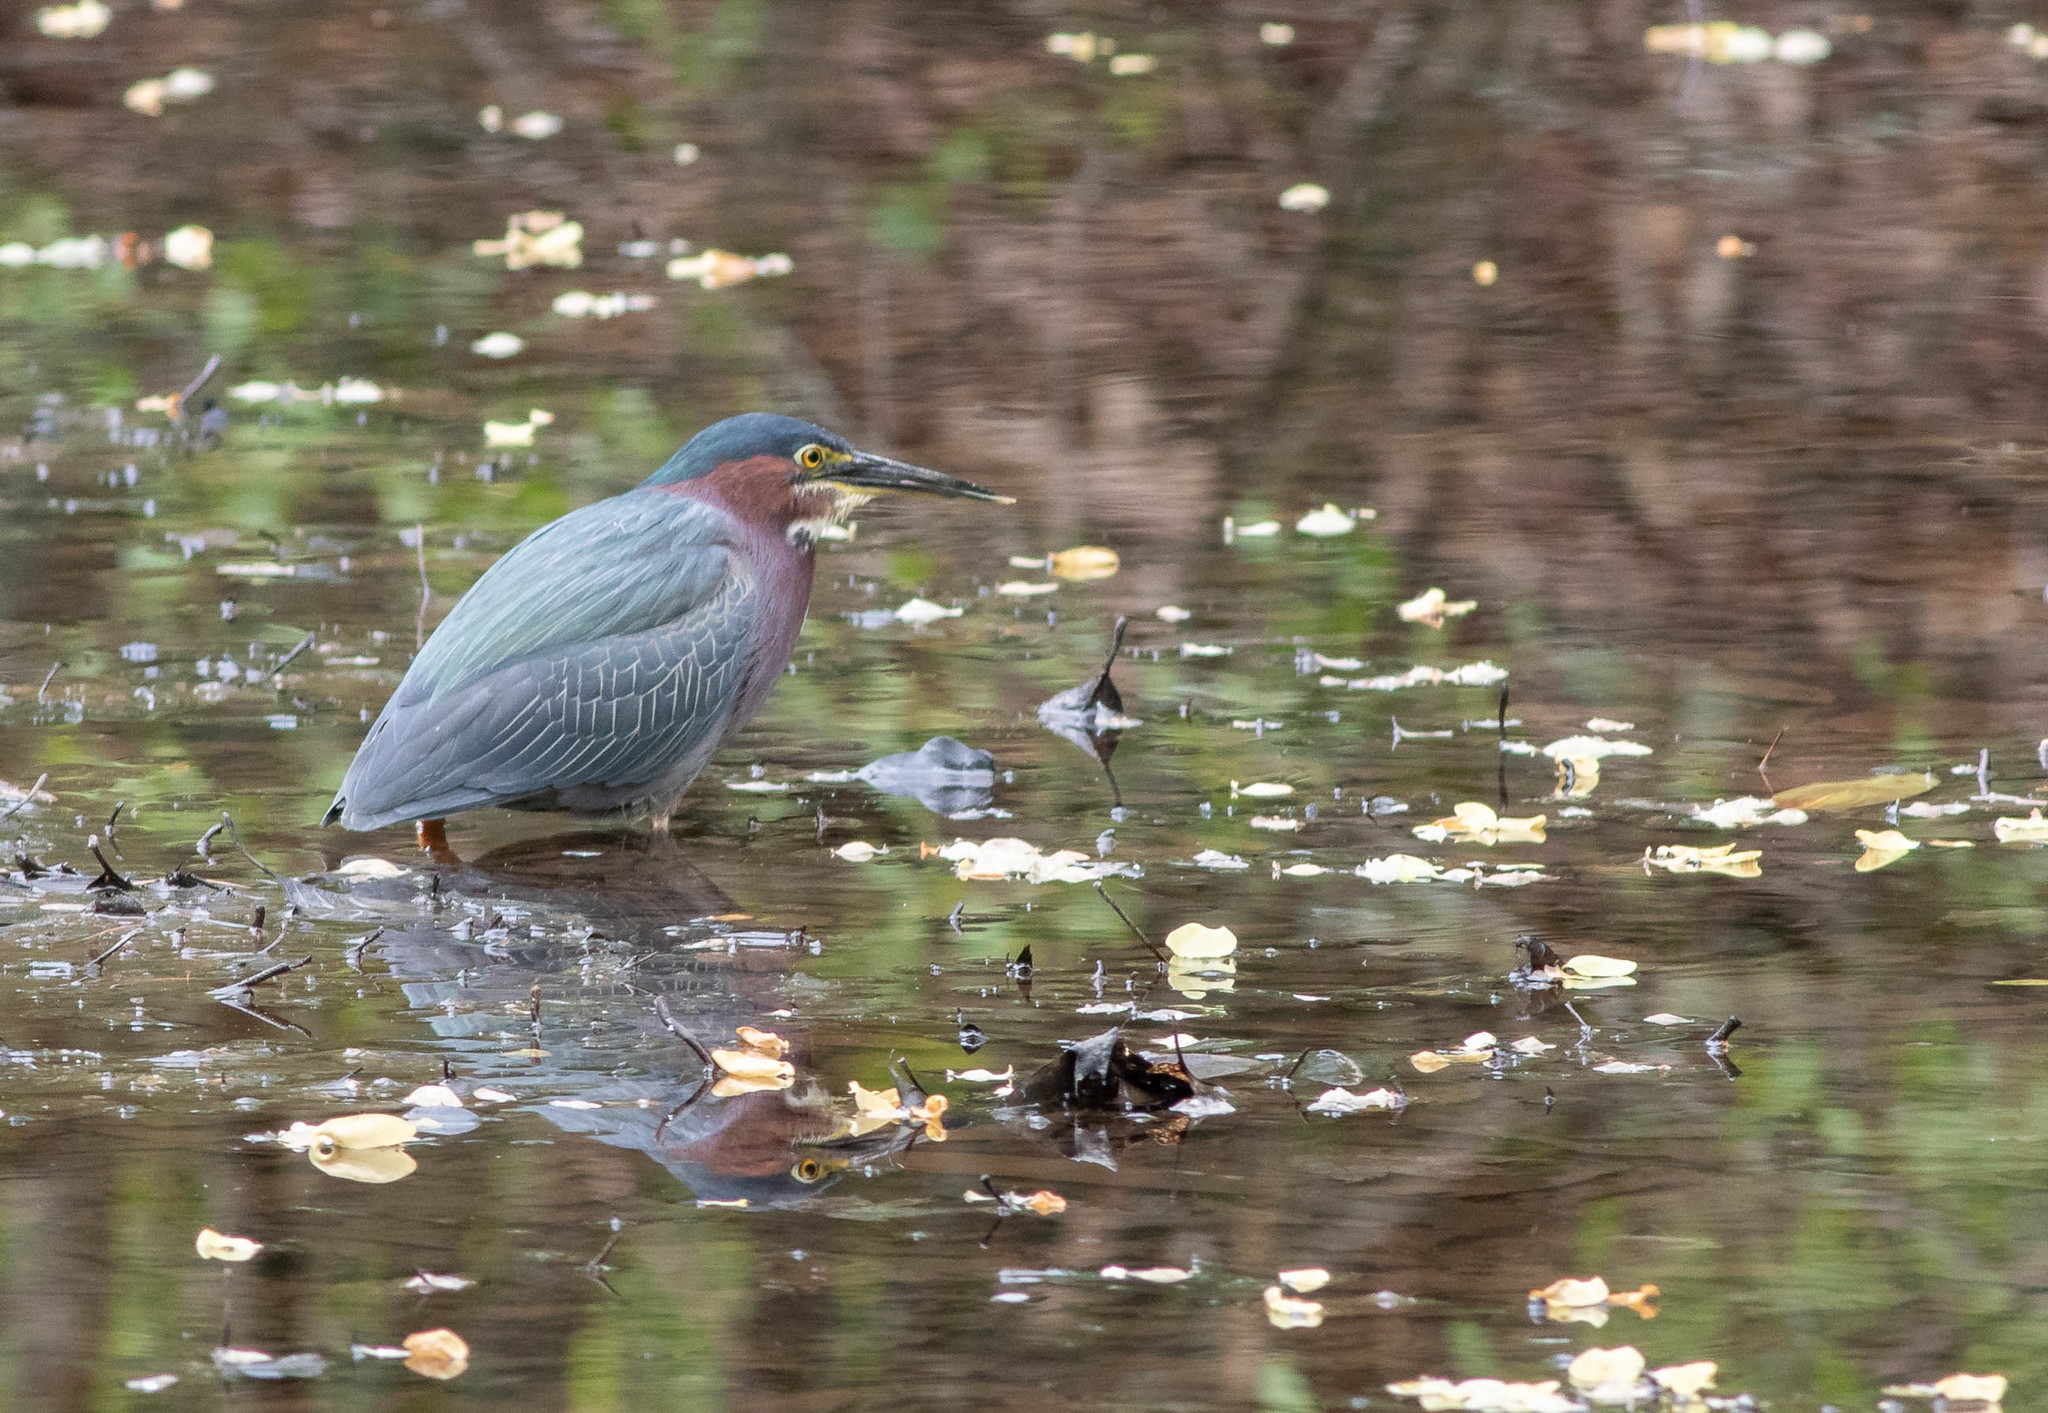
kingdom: Animalia
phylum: Chordata
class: Aves
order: Pelecaniformes
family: Ardeidae
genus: Butorides
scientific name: Butorides virescens
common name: Green heron
